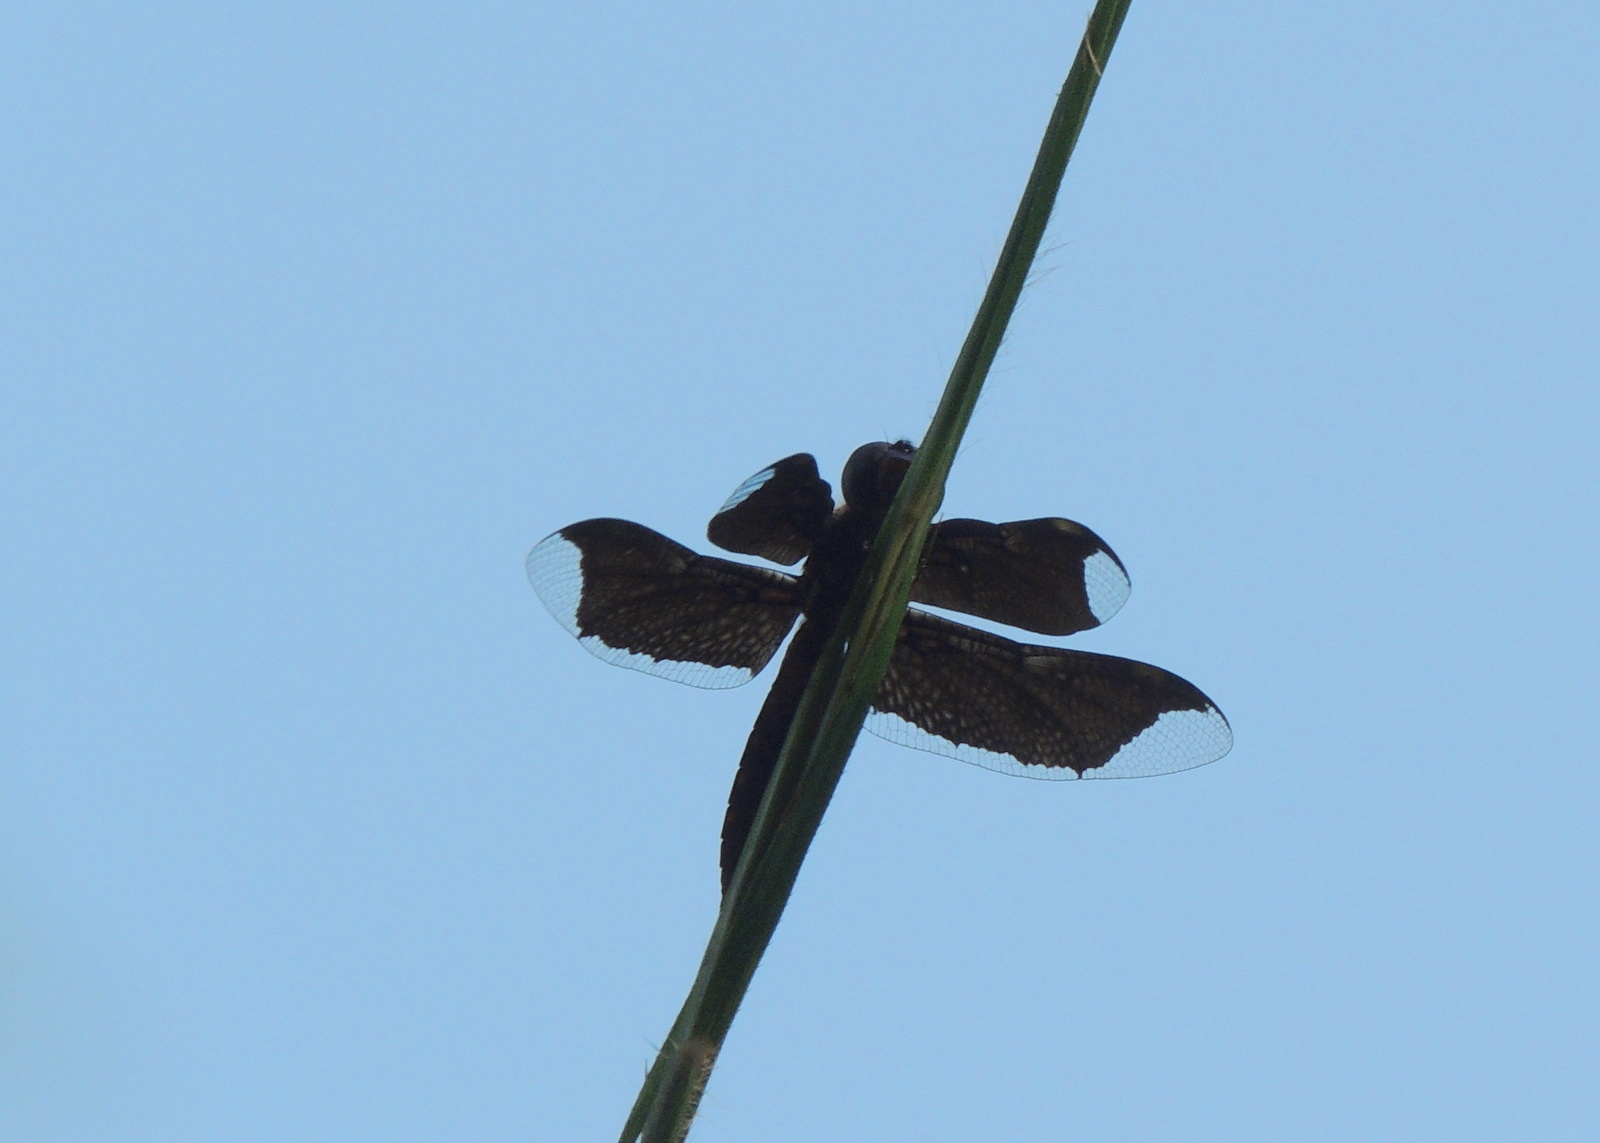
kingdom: Animalia
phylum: Arthropoda
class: Insecta
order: Odonata
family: Libellulidae
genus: Palpopleura
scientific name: Palpopleura lucia
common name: Lucia widow
